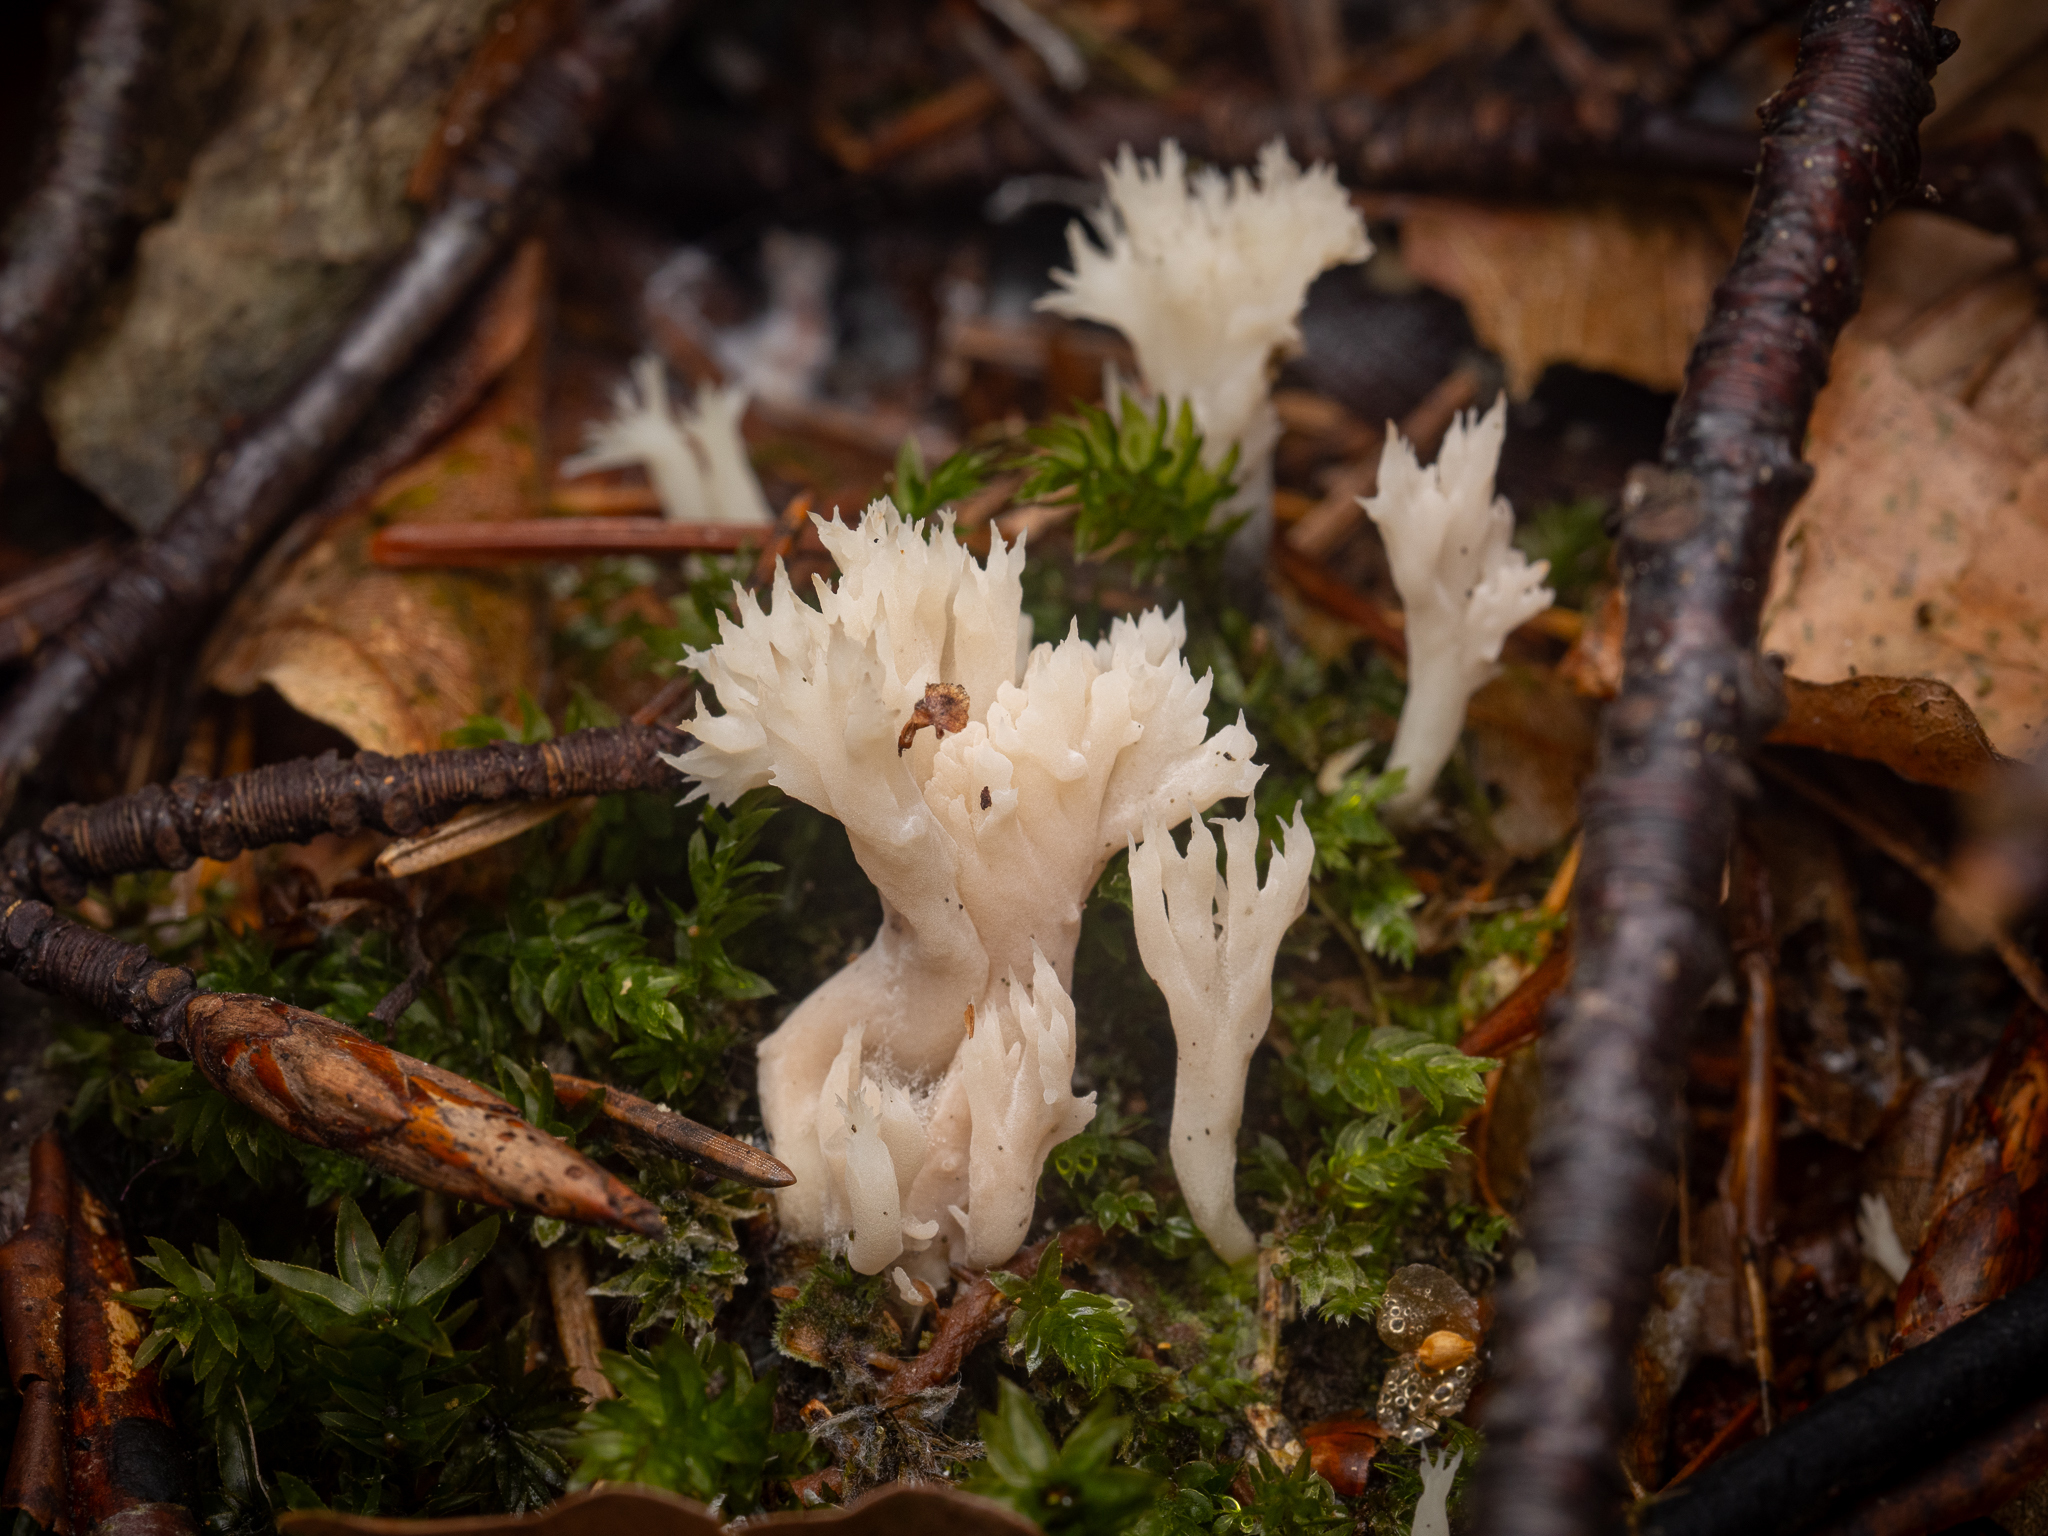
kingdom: Fungi
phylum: Basidiomycota
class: Agaricomycetes
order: Cantharellales
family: Hydnaceae
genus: Clavulina
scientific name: Clavulina coralloides
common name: Crested coral
